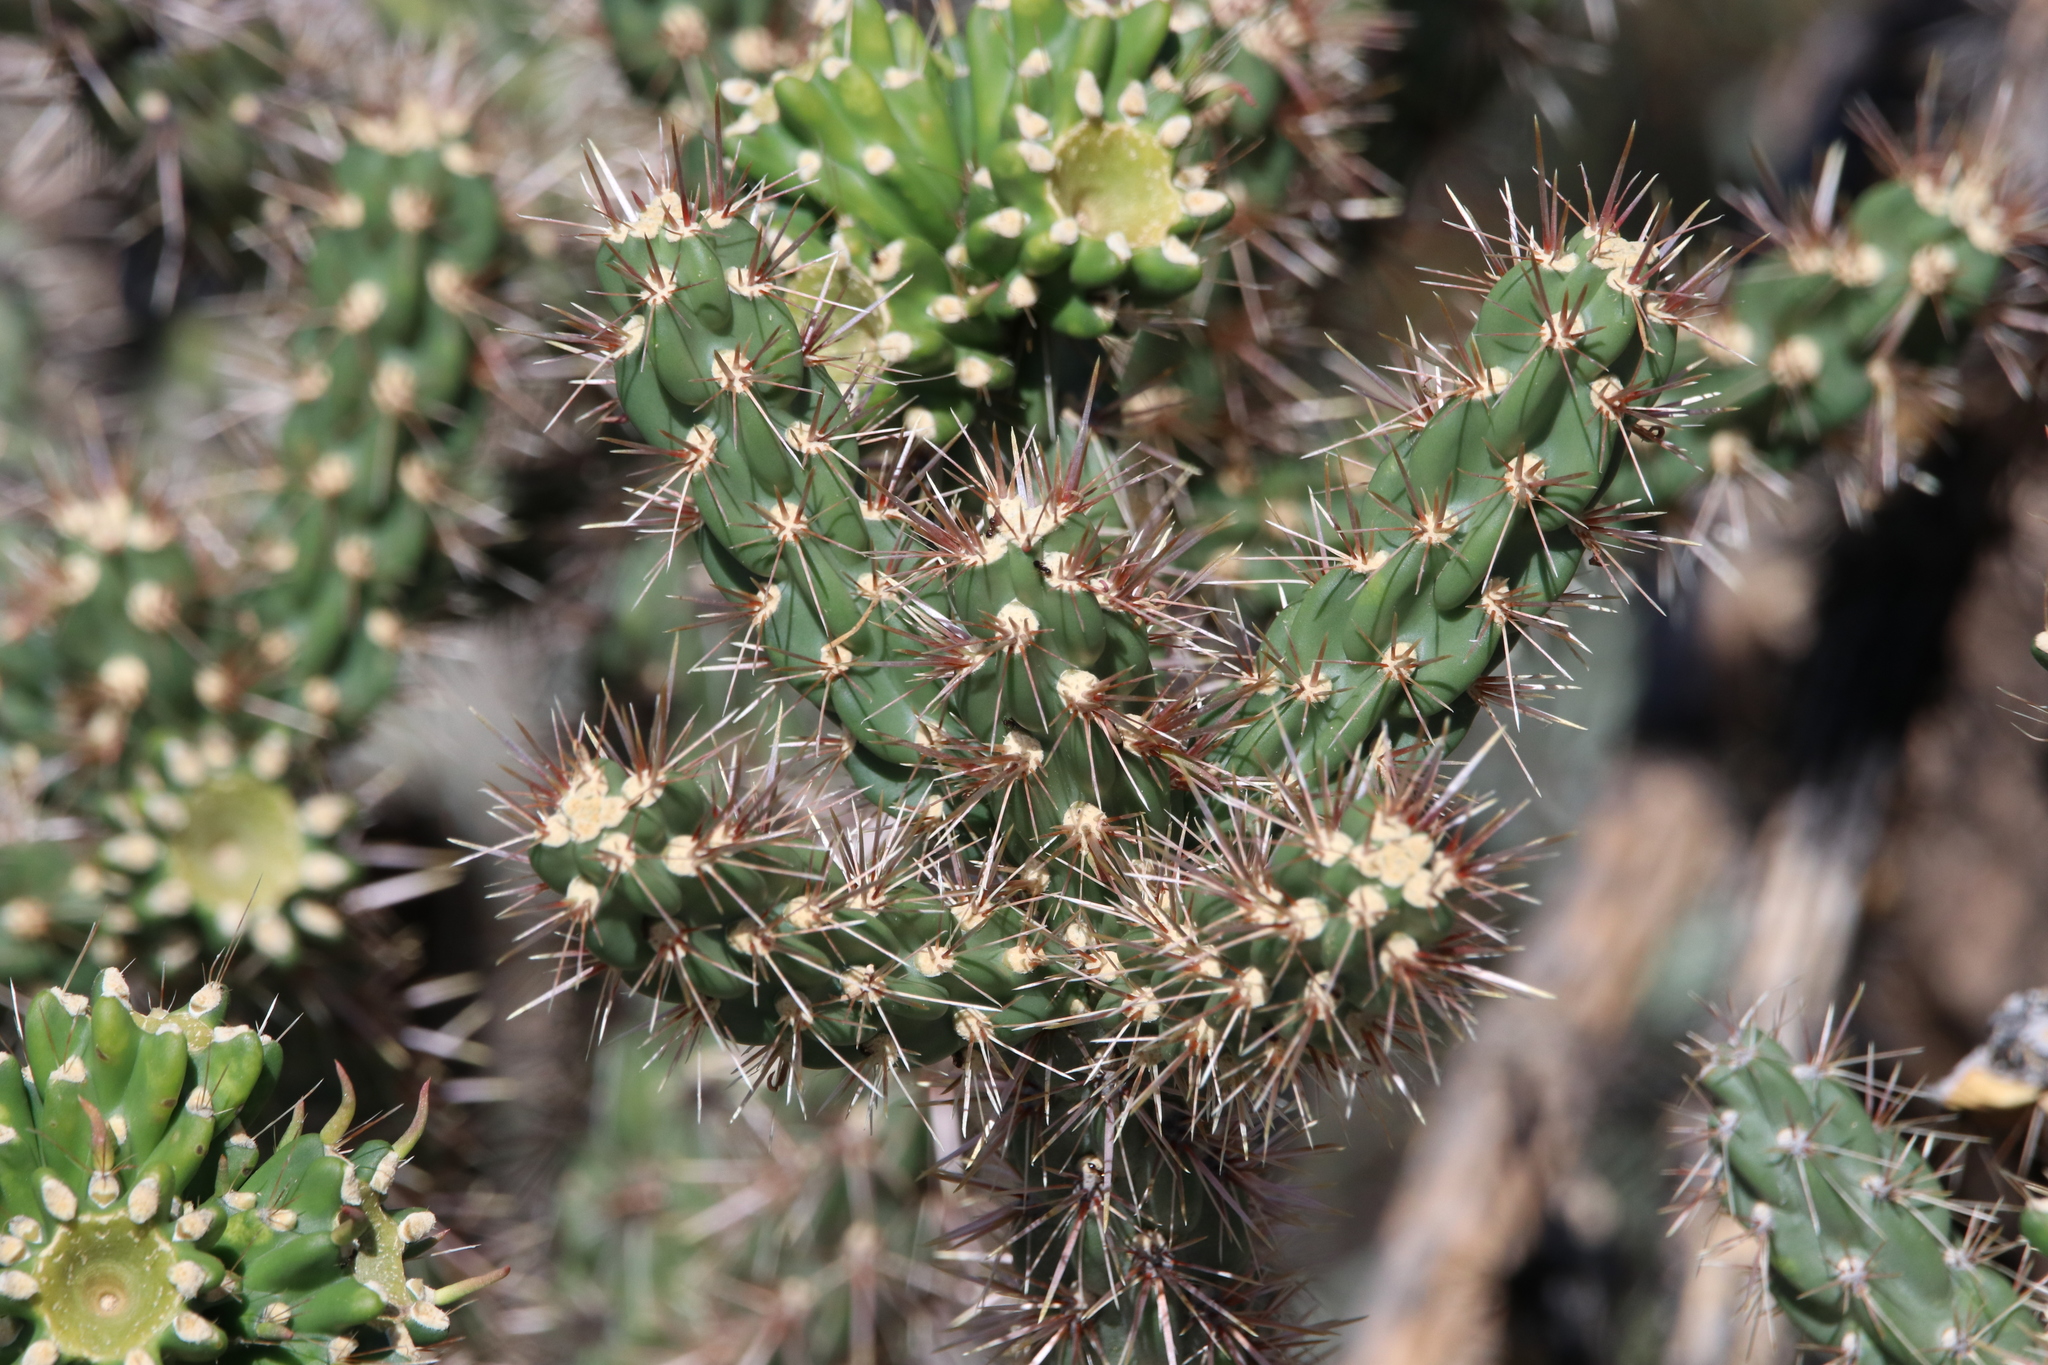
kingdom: Plantae
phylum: Tracheophyta
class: Magnoliopsida
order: Caryophyllales
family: Cactaceae
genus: Cylindropuntia
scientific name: Cylindropuntia imbricata
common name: Candelabrum cactus
